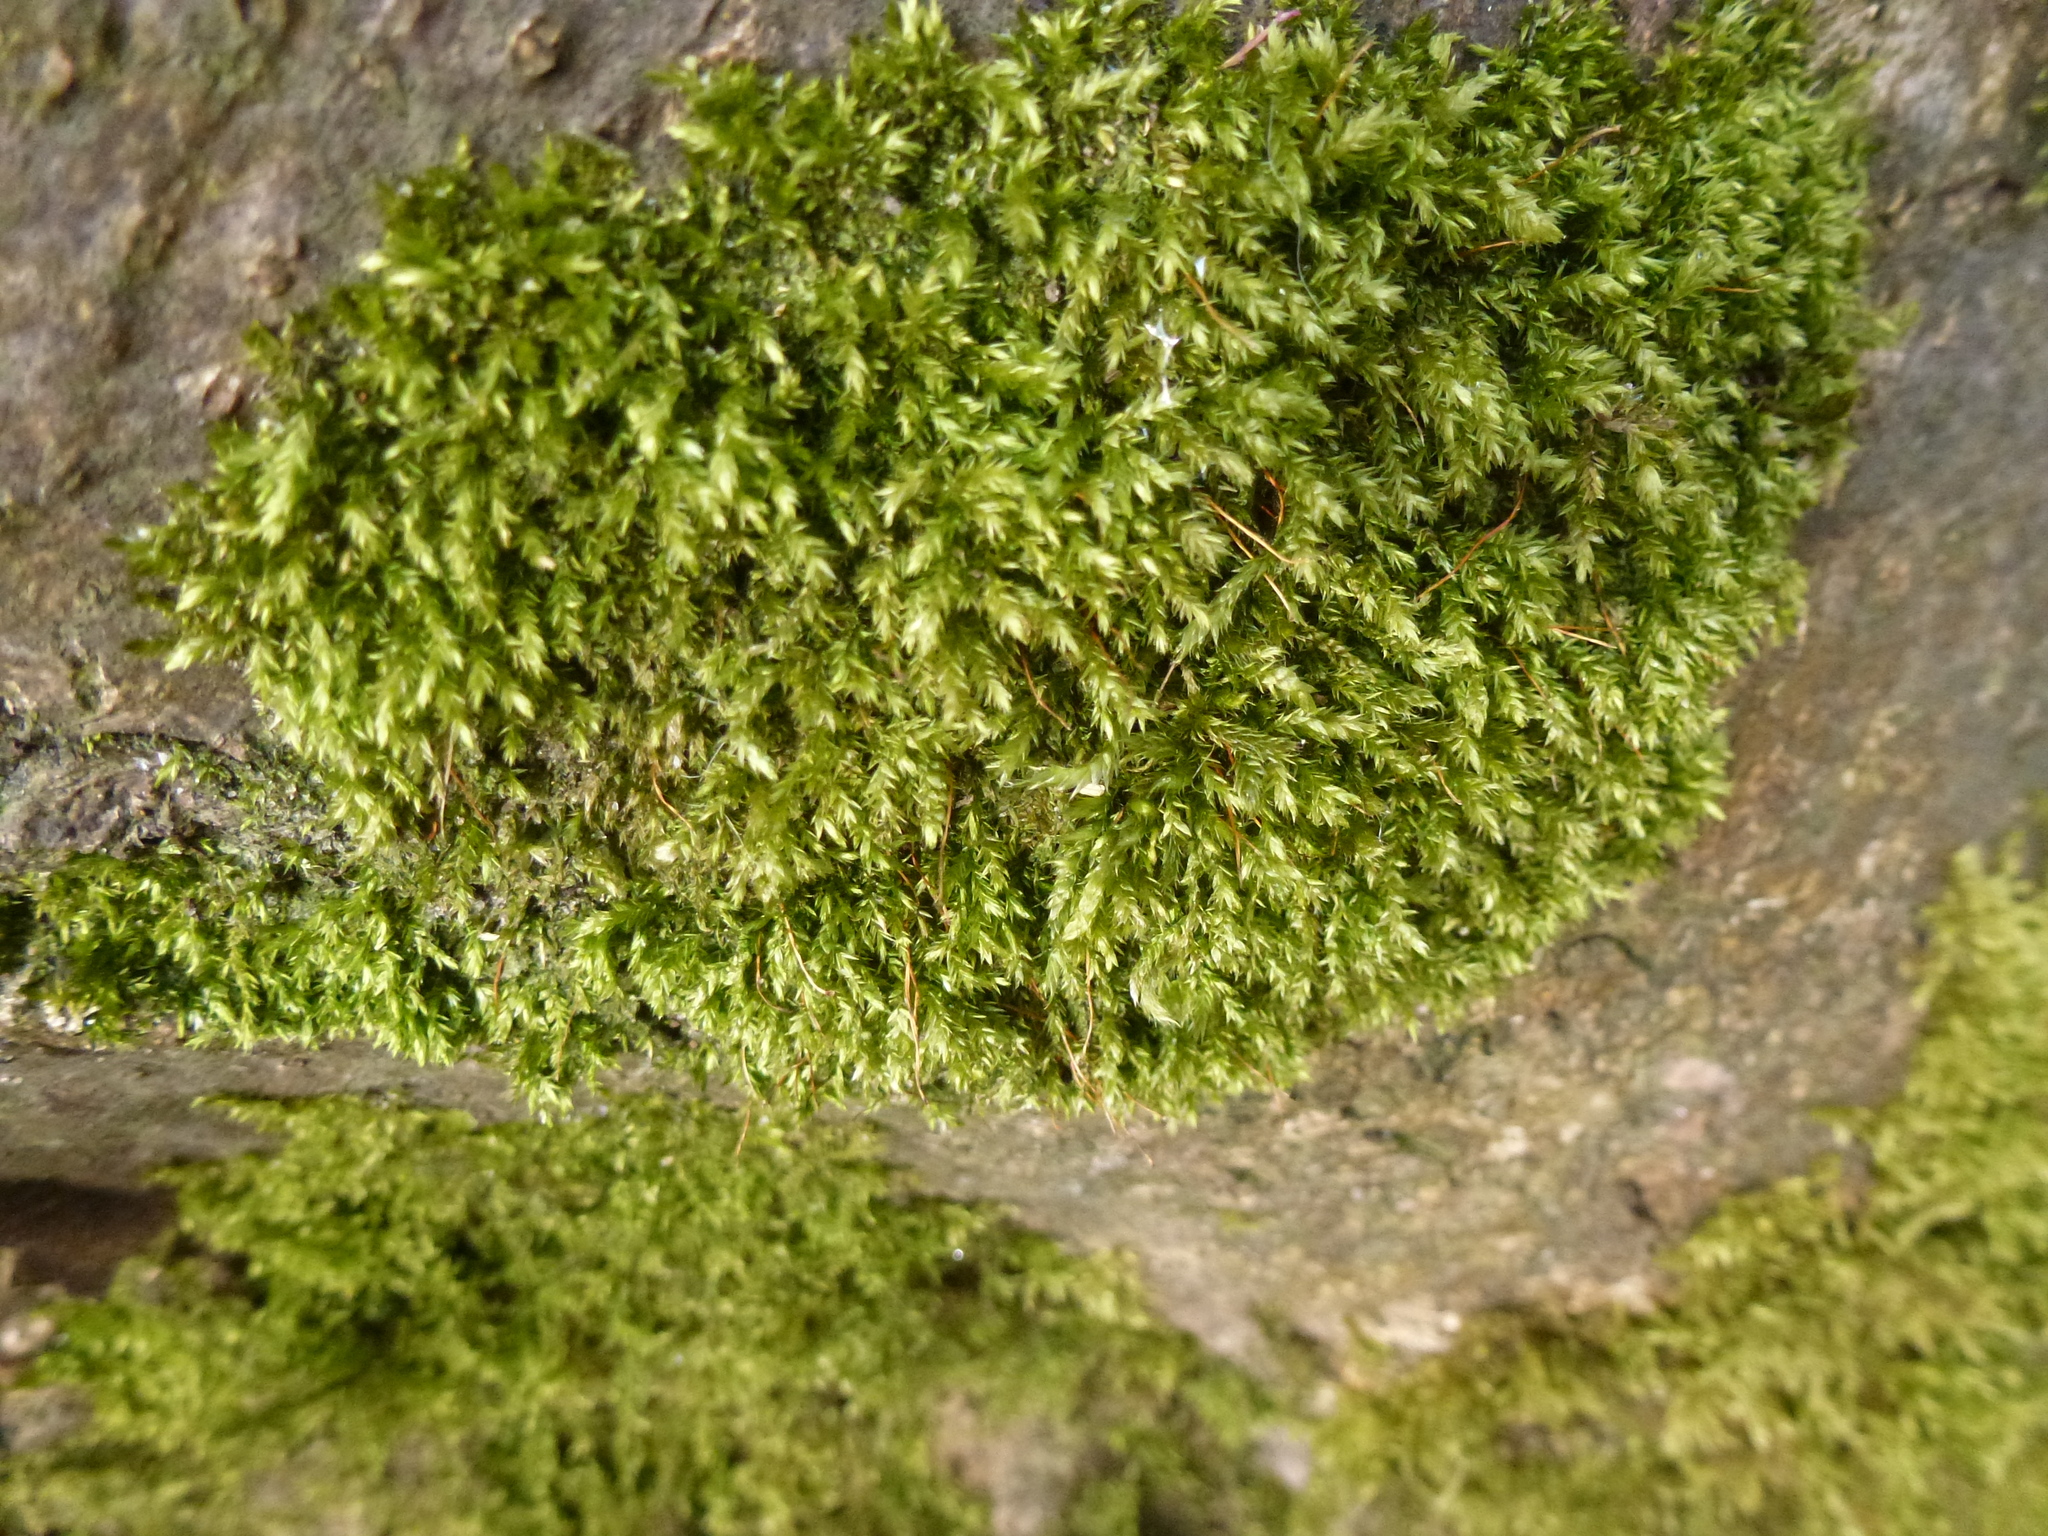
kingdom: Plantae
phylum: Bryophyta
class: Bryopsida
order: Hypnales
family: Brachytheciaceae
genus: Brachythecium
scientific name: Brachythecium rutabulum
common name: Rough-stalked feather-moss
